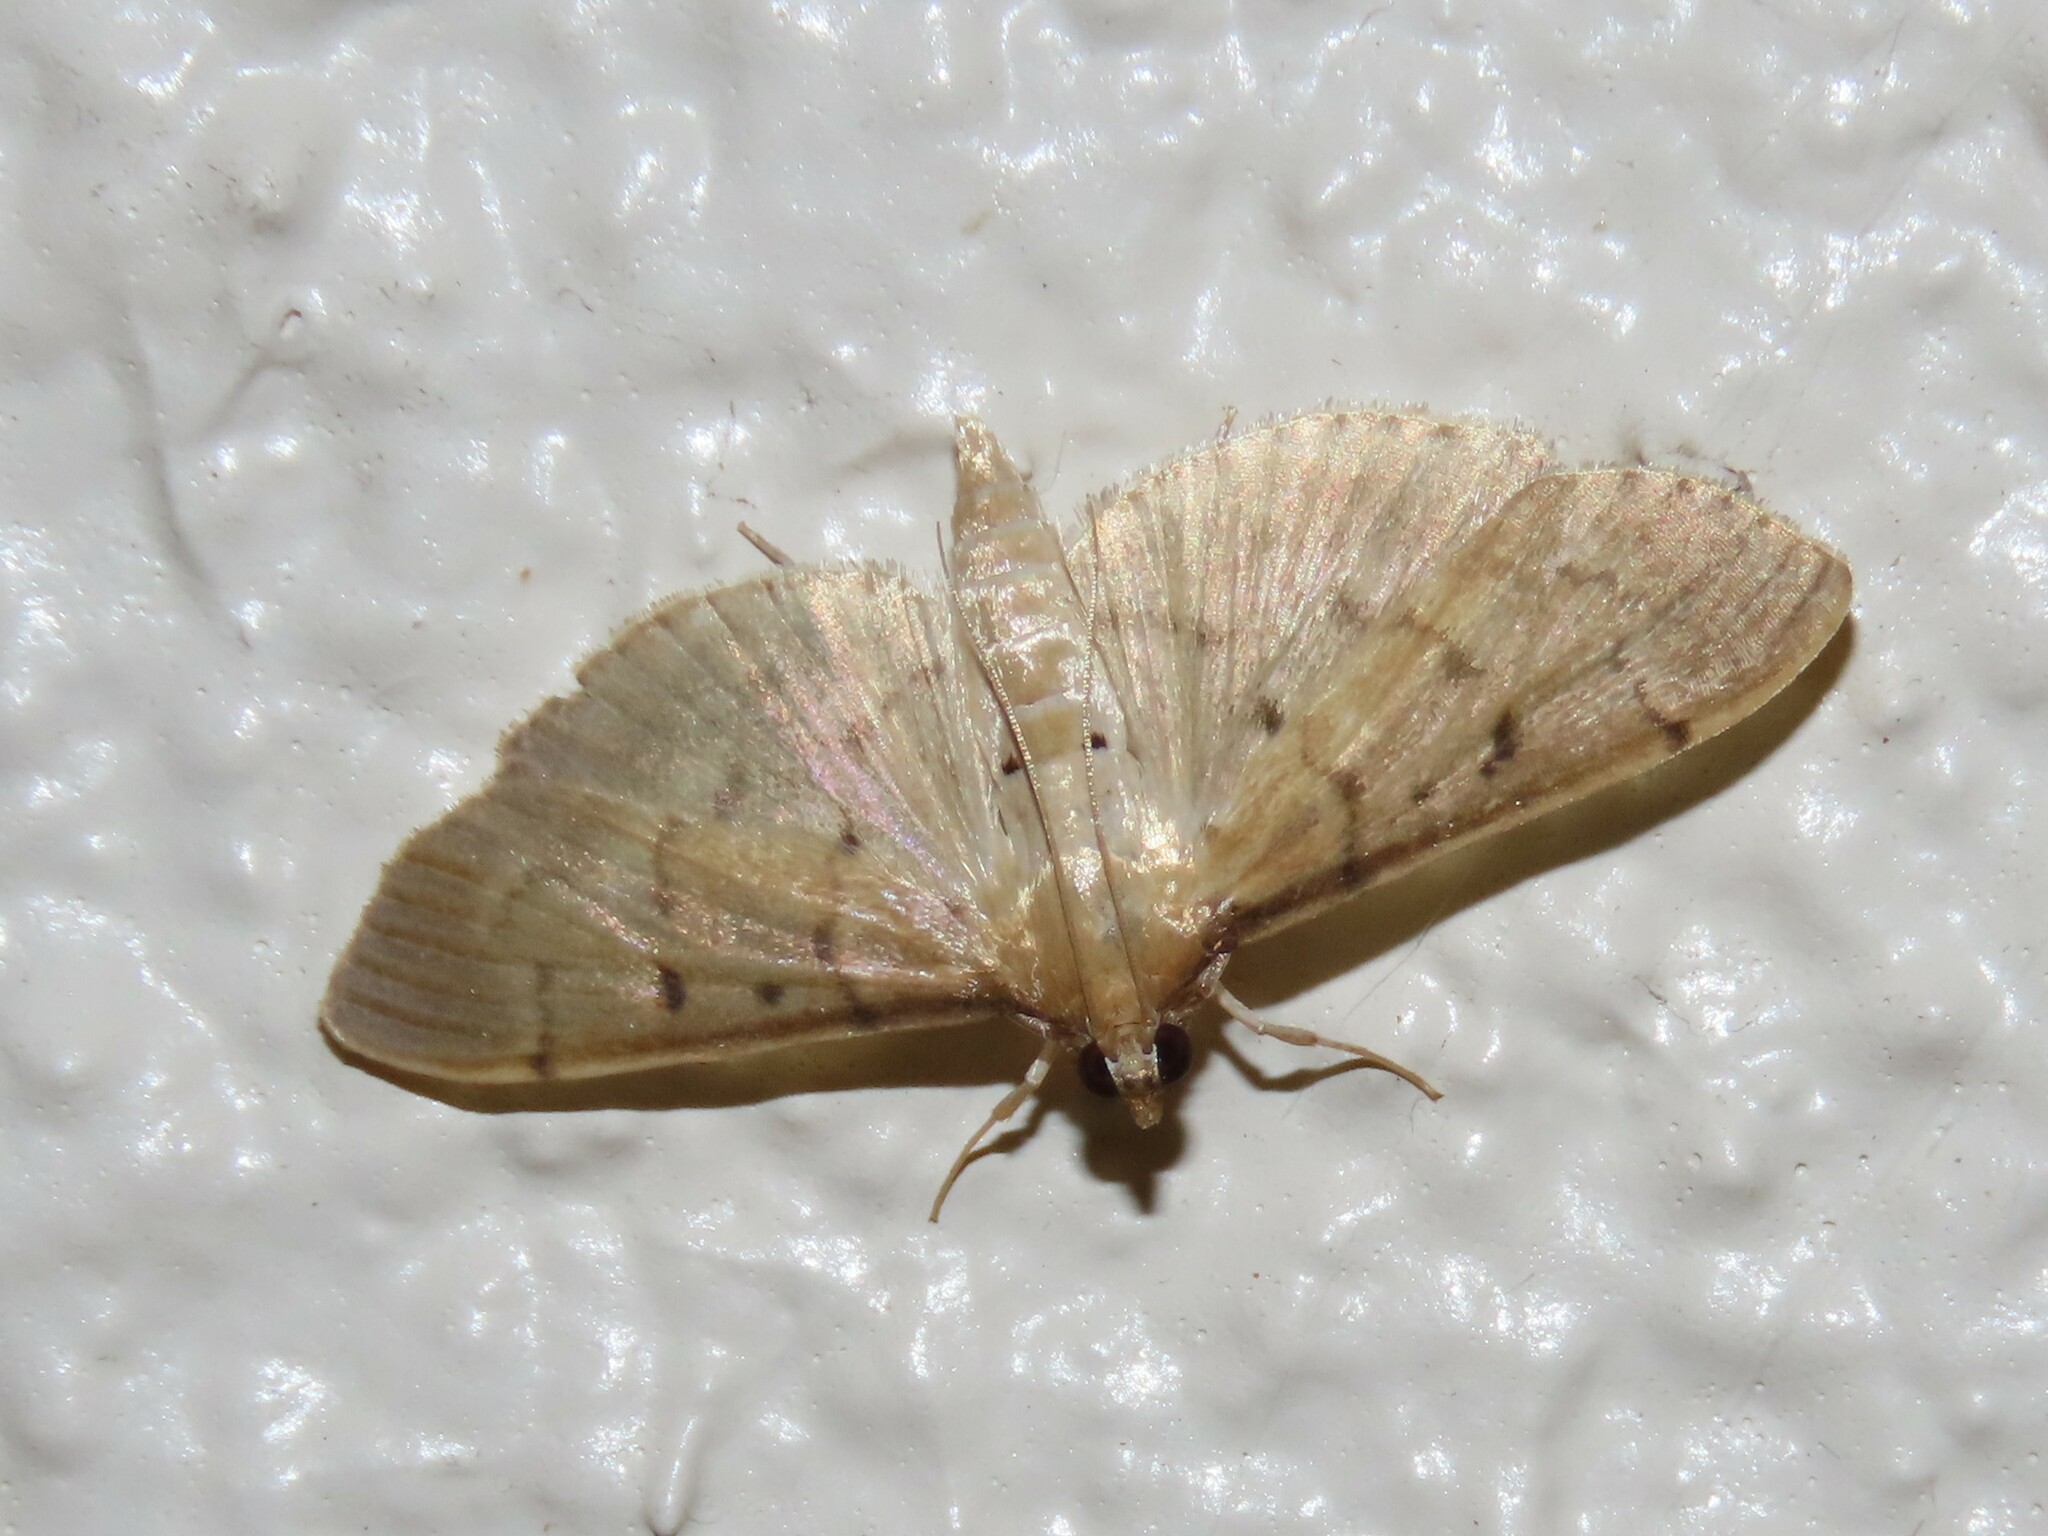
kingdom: Animalia
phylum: Arthropoda
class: Insecta
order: Lepidoptera
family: Crambidae
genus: Herpetogramma
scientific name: Herpetogramma bipunctalis
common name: Southern beet webworm
